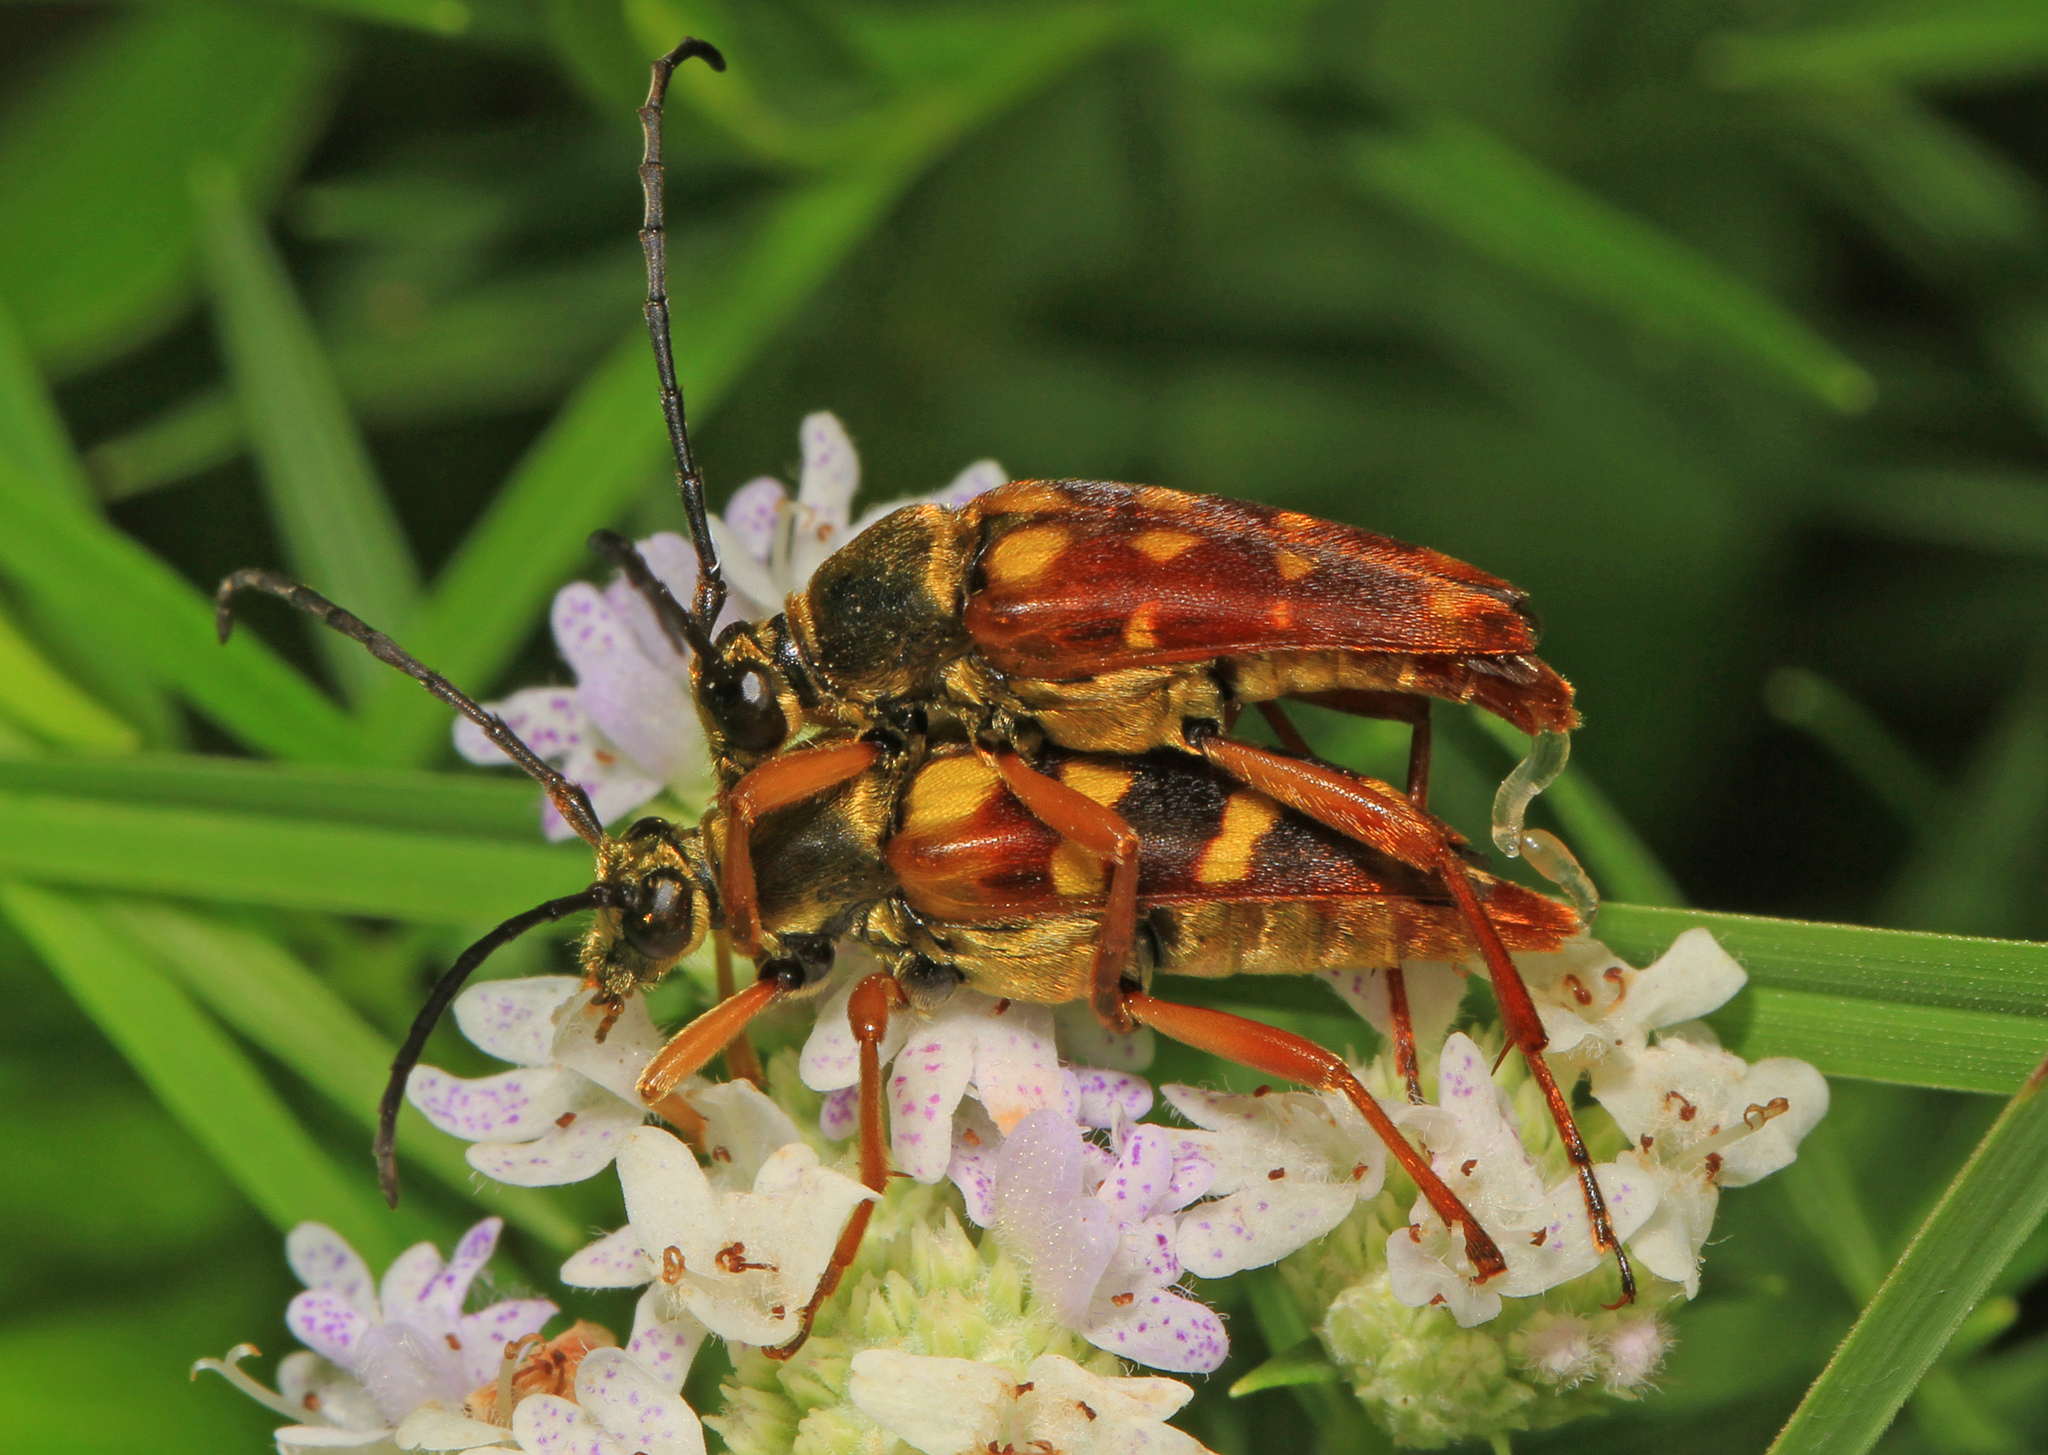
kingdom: Animalia
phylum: Arthropoda
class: Insecta
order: Coleoptera
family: Cerambycidae
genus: Typocerus
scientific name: Typocerus velutinus
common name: Banded longhorn beetle
